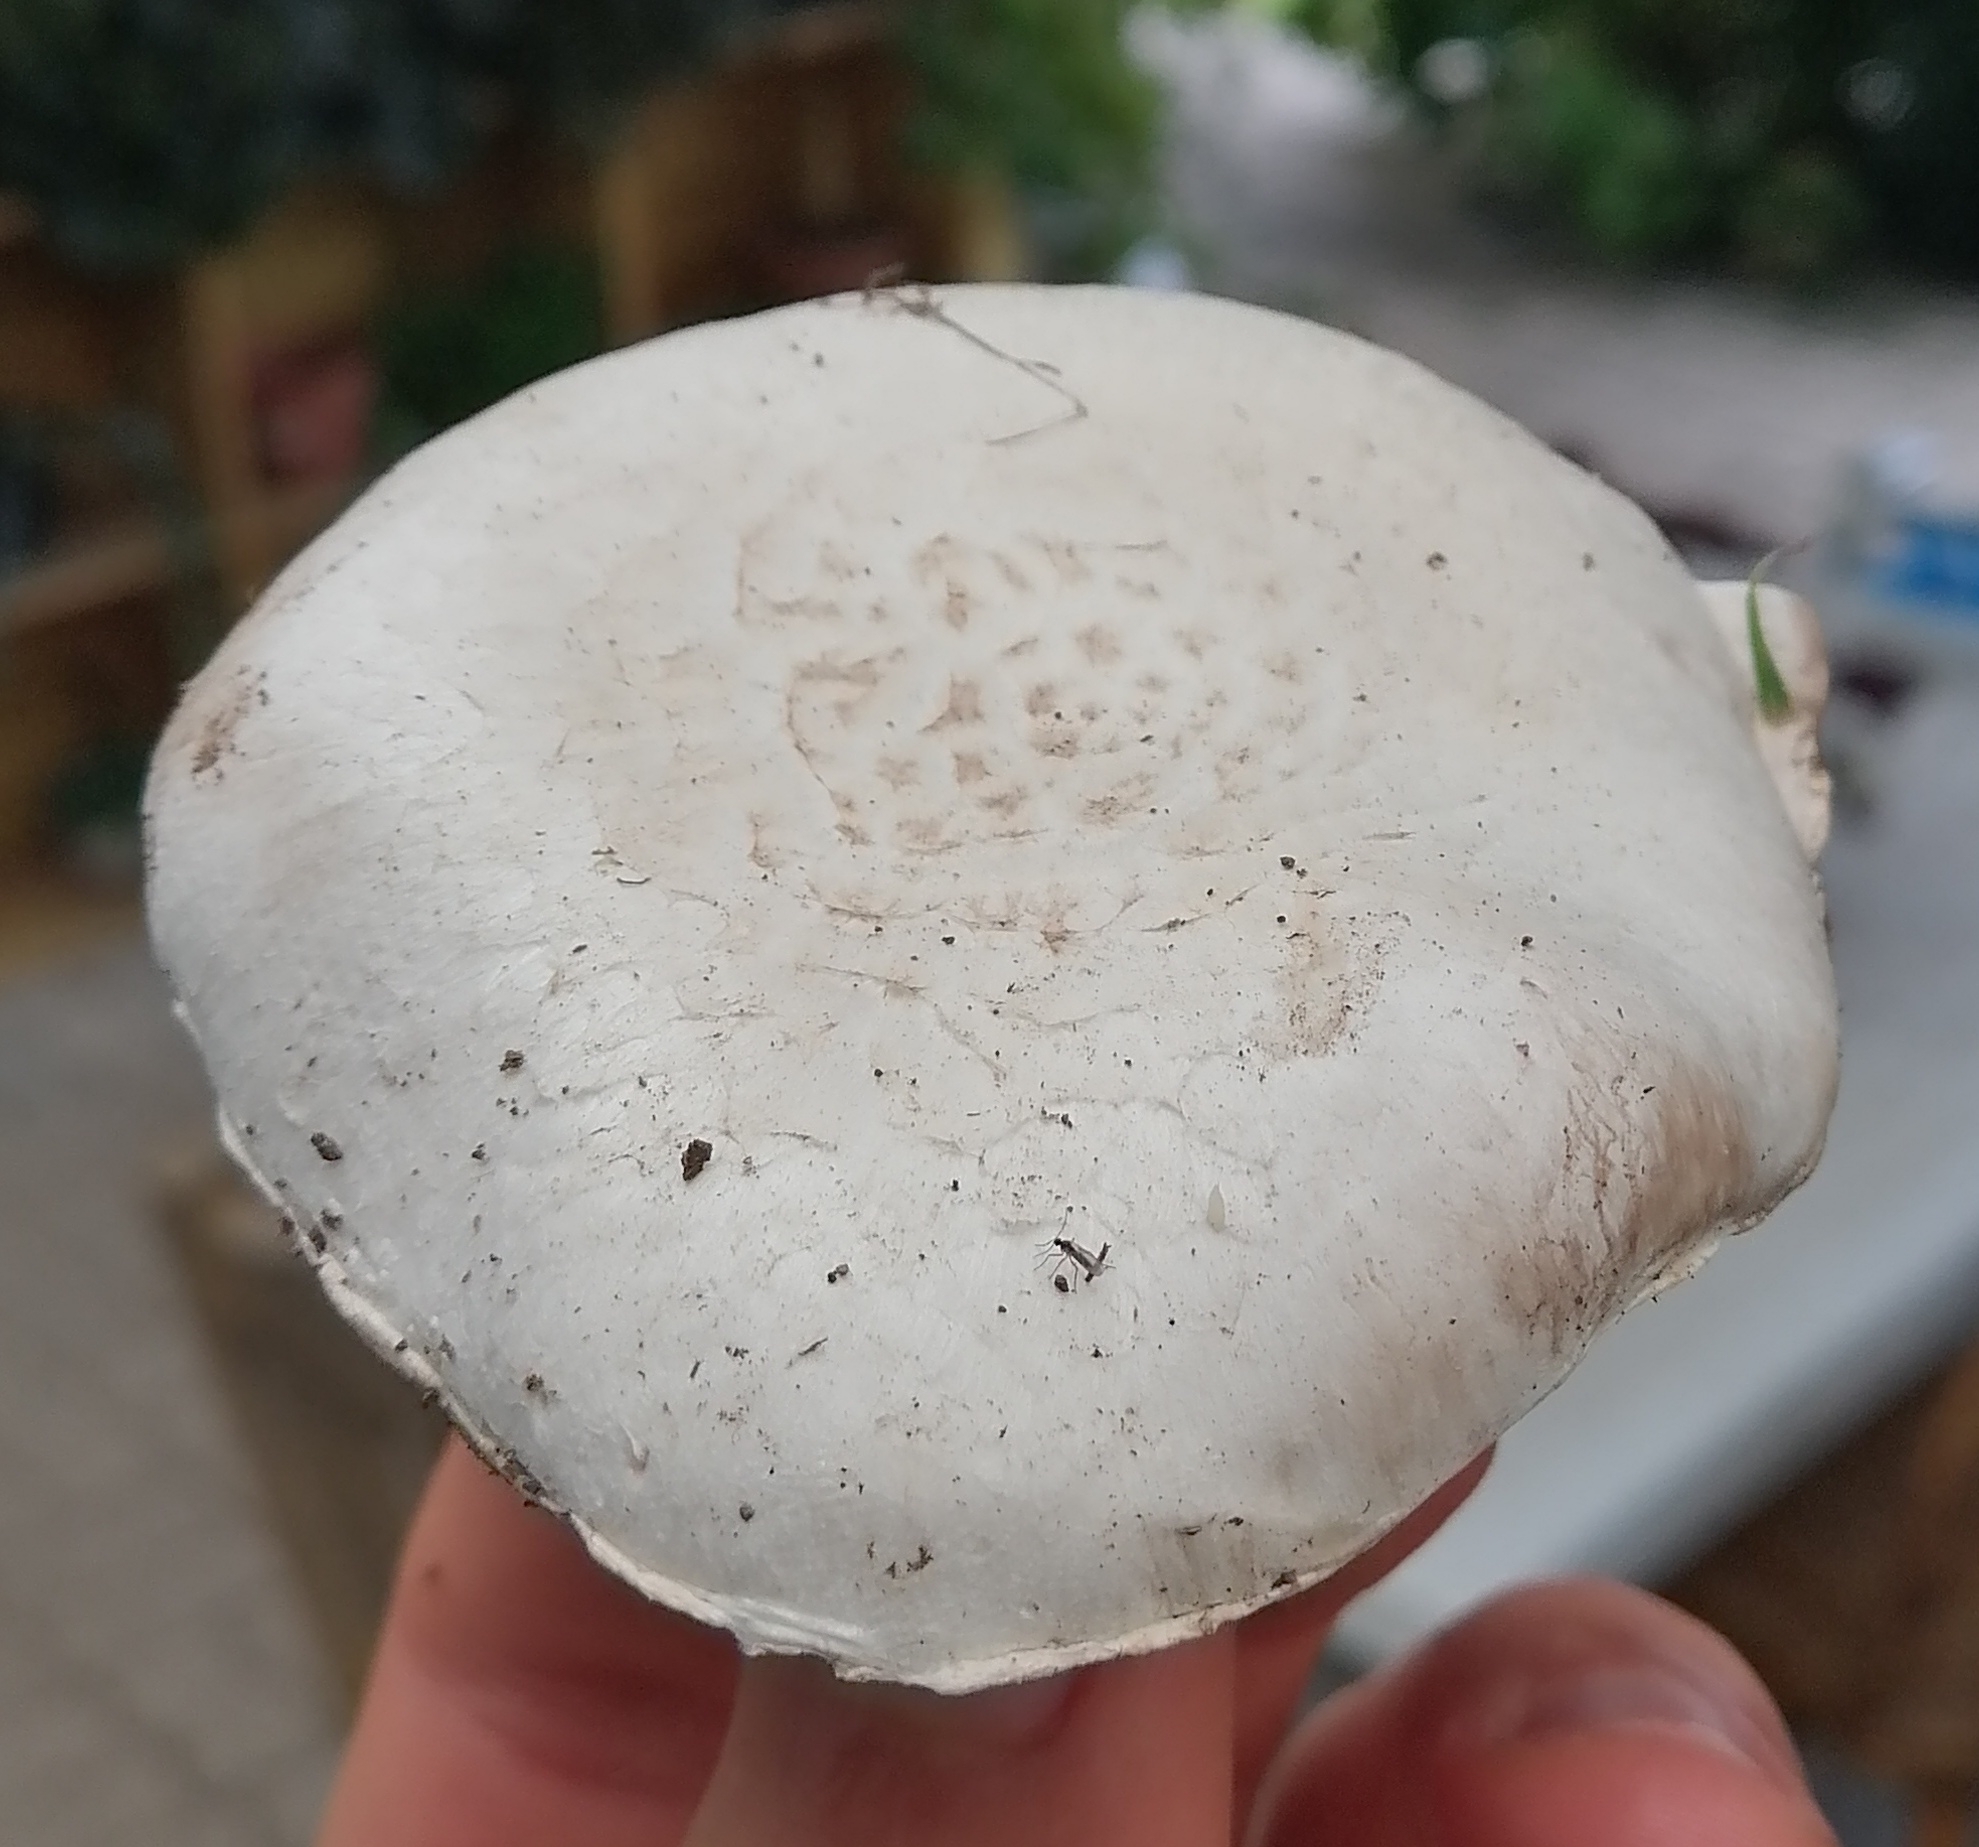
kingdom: Fungi
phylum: Basidiomycota
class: Agaricomycetes
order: Agaricales
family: Agaricaceae
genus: Agaricus
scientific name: Agaricus campestris
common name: Field mushroom
